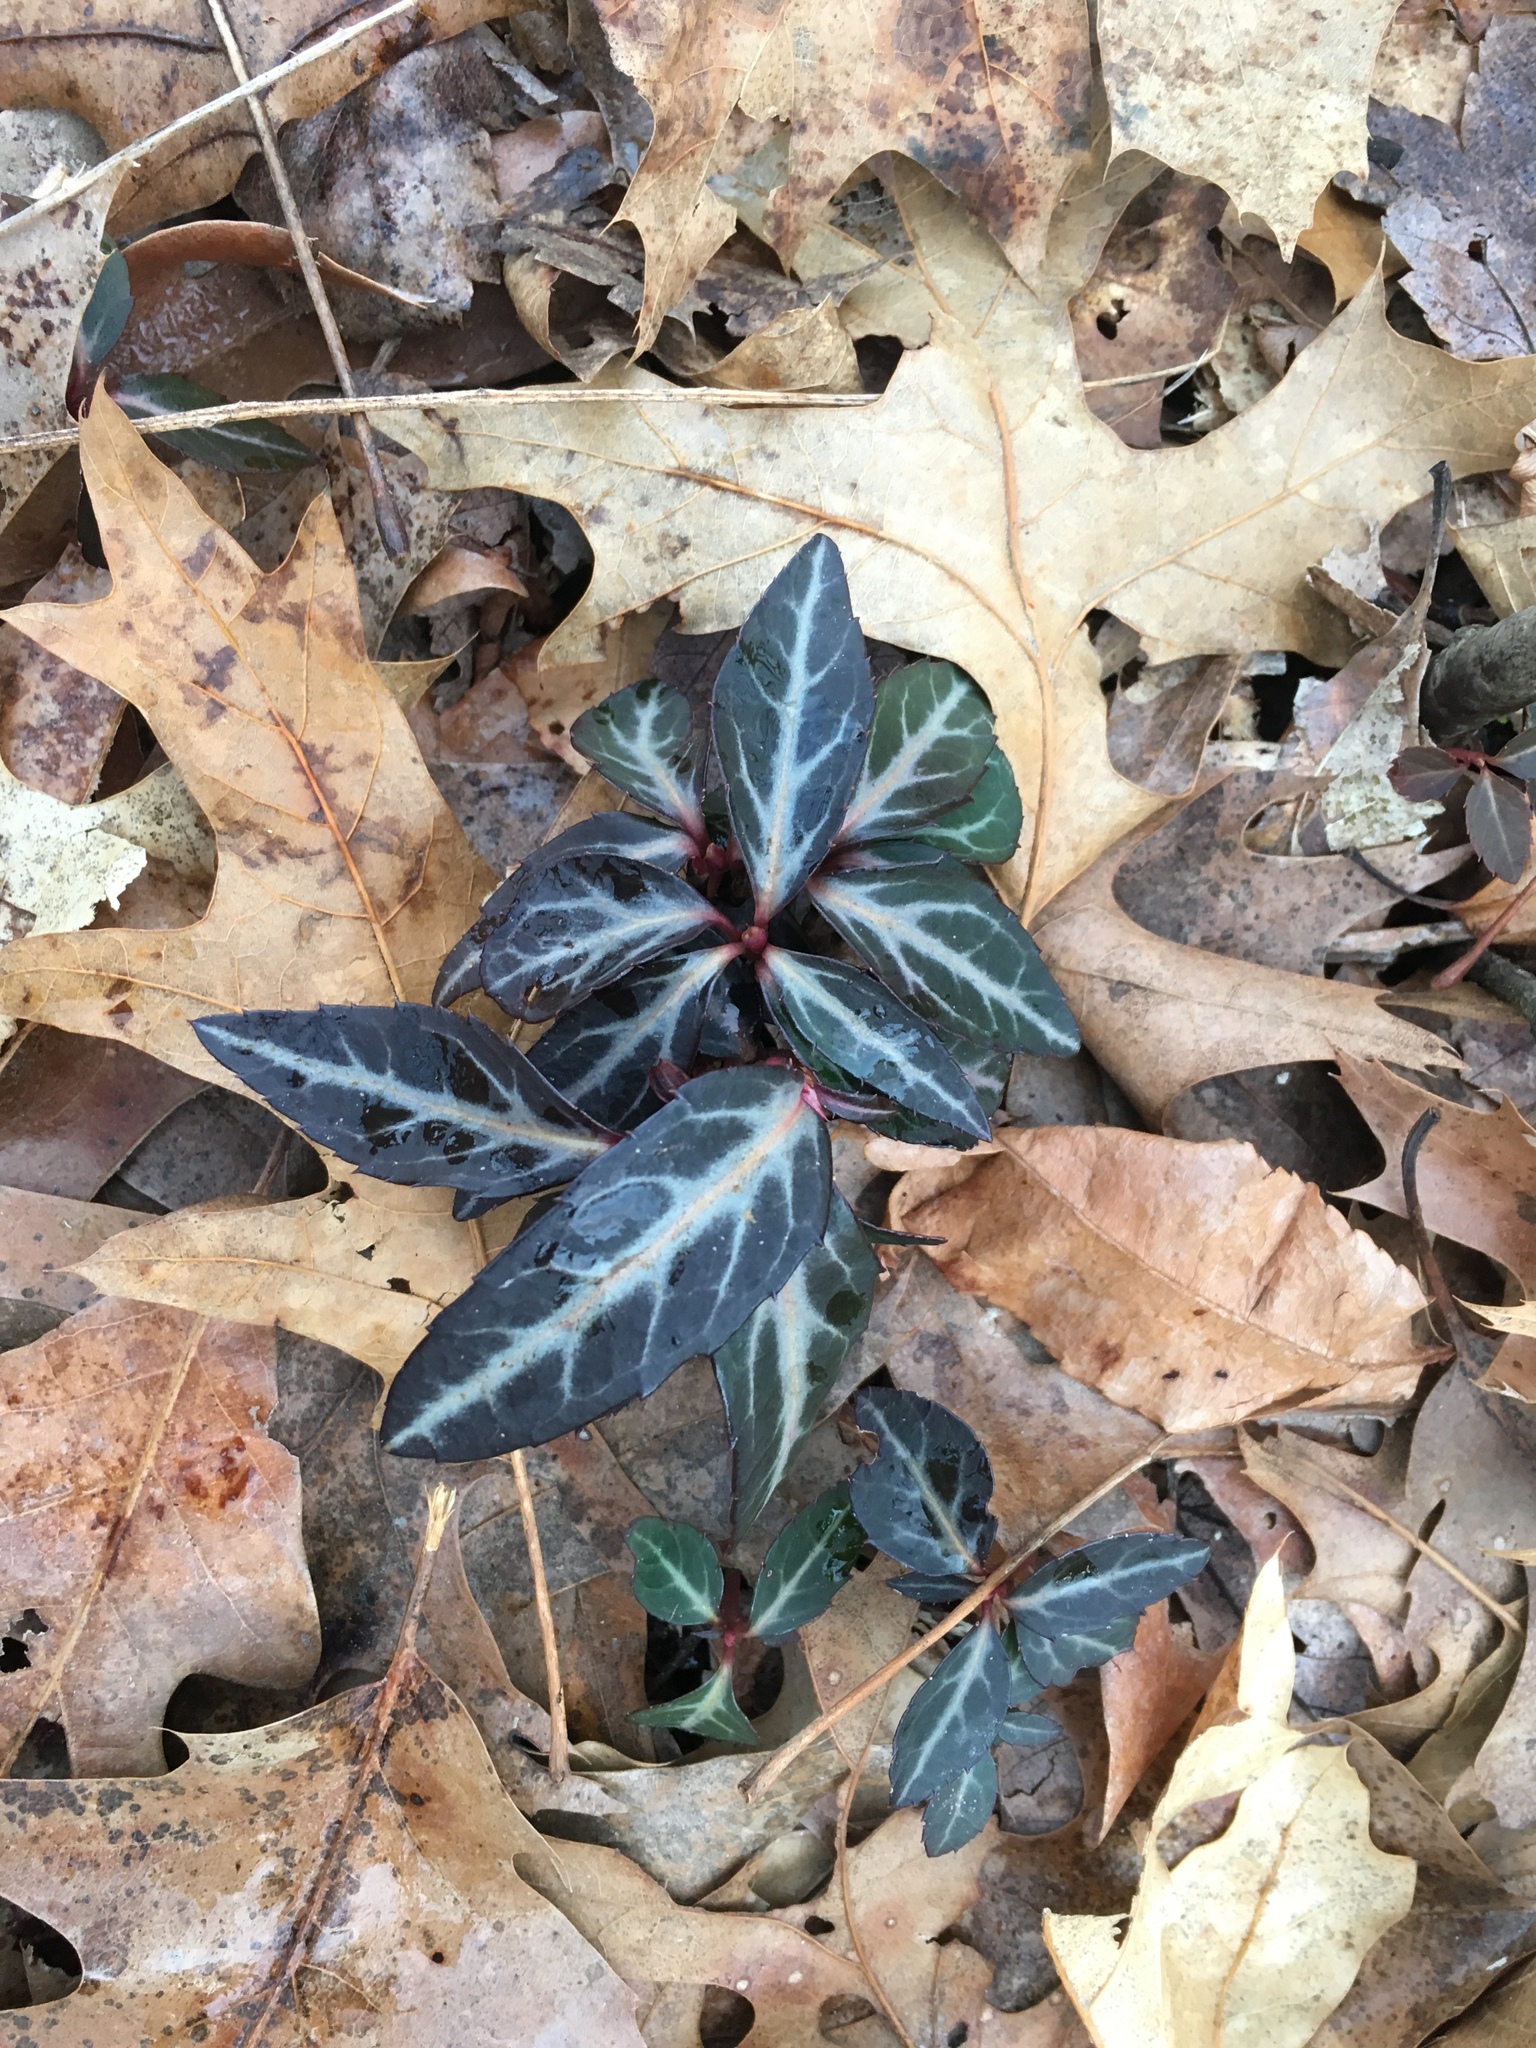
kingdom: Plantae
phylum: Tracheophyta
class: Magnoliopsida
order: Ericales
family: Ericaceae
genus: Chimaphila
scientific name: Chimaphila maculata
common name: Spotted pipsissewa
